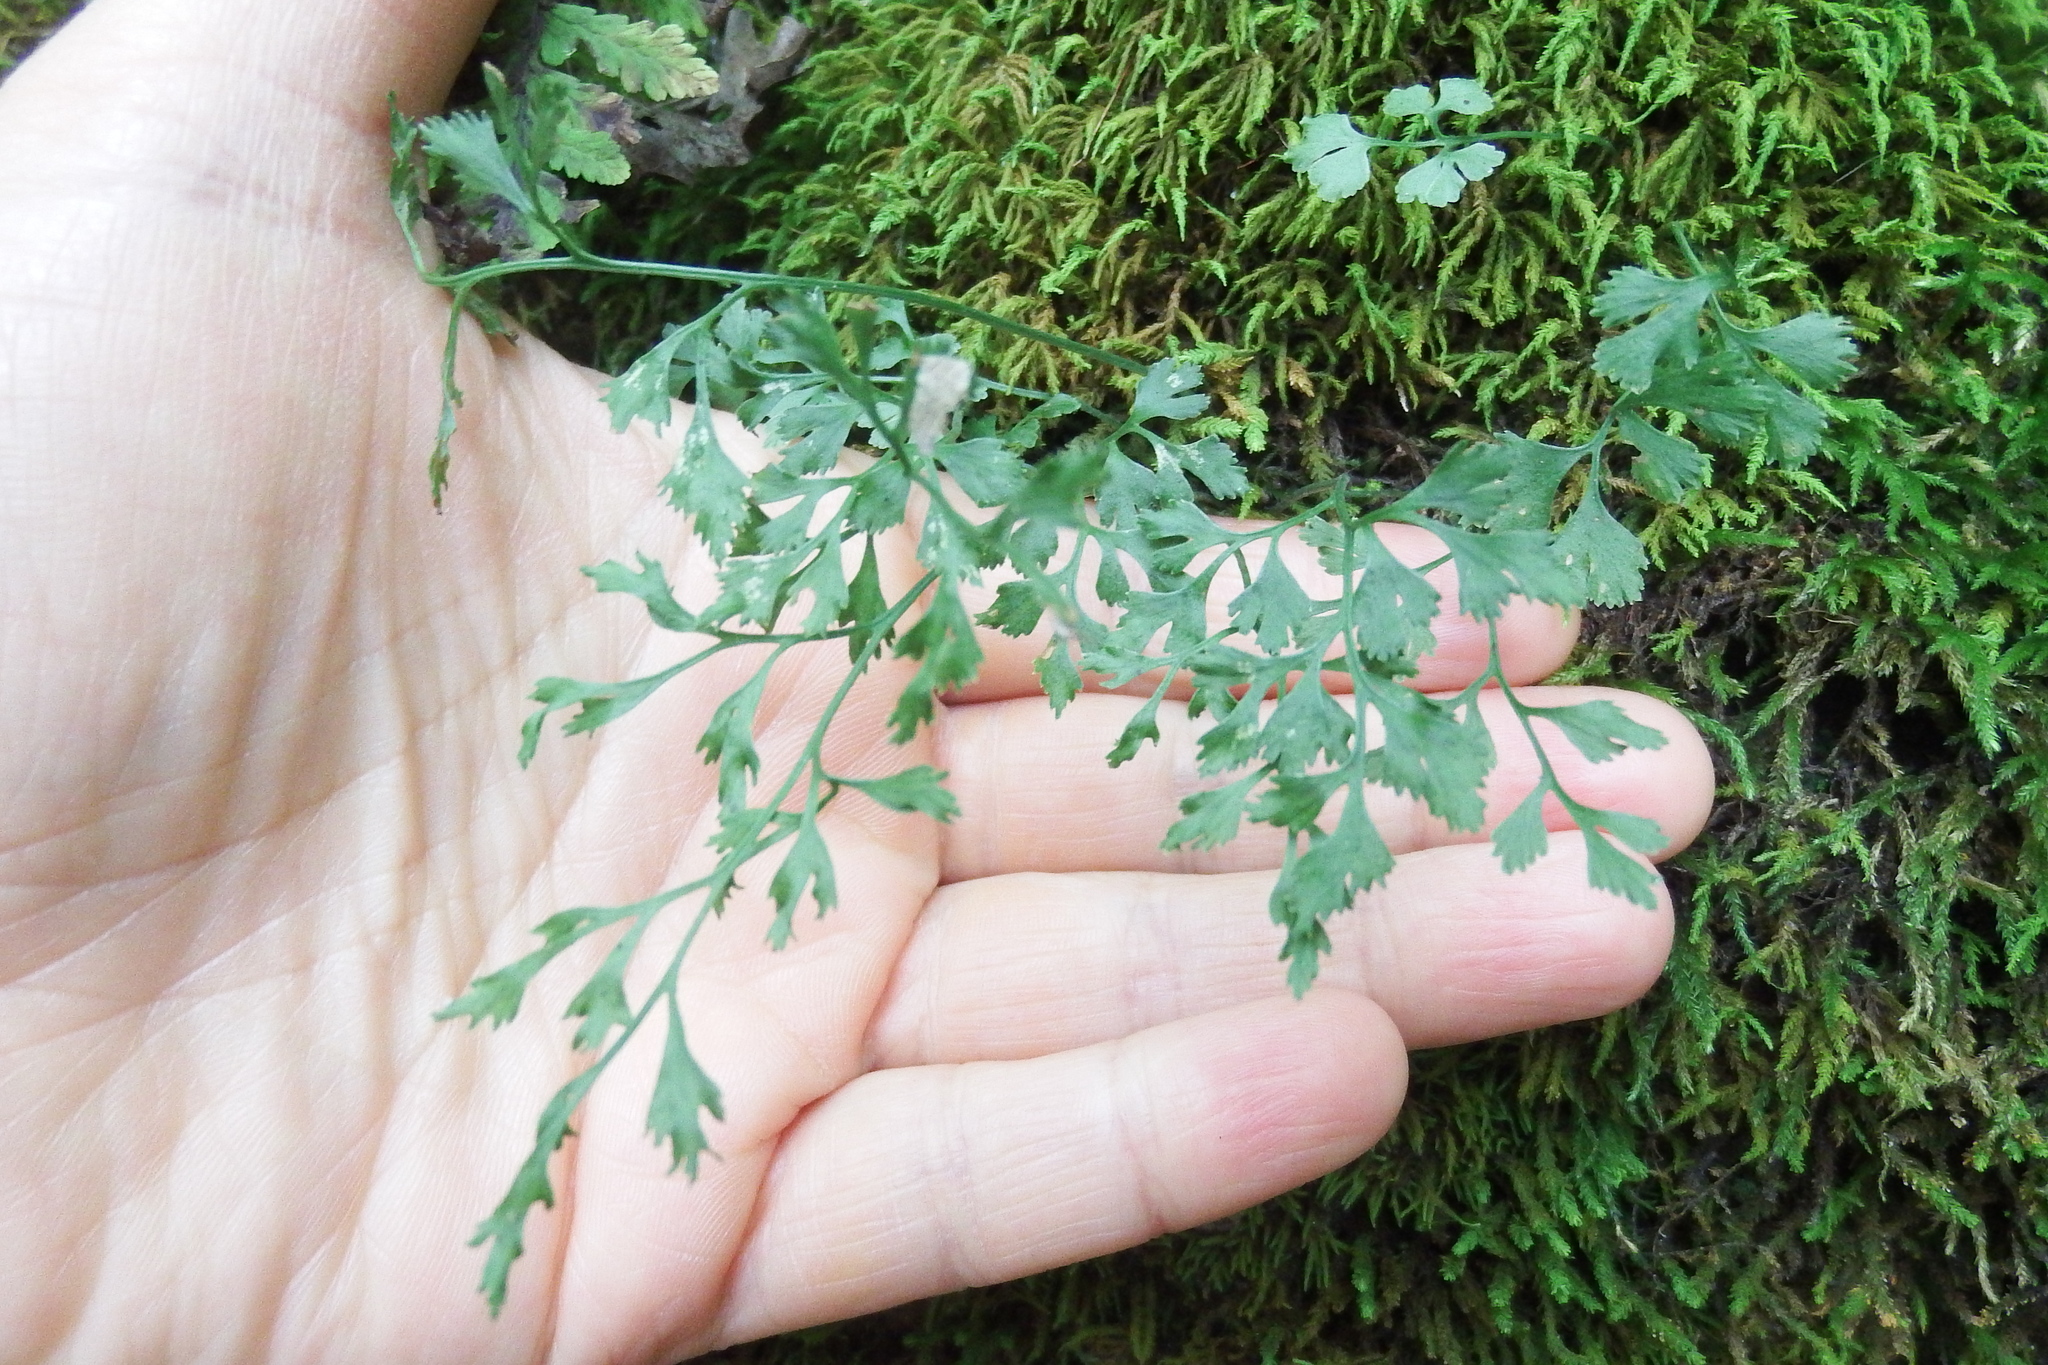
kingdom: Plantae
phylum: Tracheophyta
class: Polypodiopsida
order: Polypodiales
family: Aspleniaceae
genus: Asplenium
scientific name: Asplenium ruta-muraria
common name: Wall-rue
